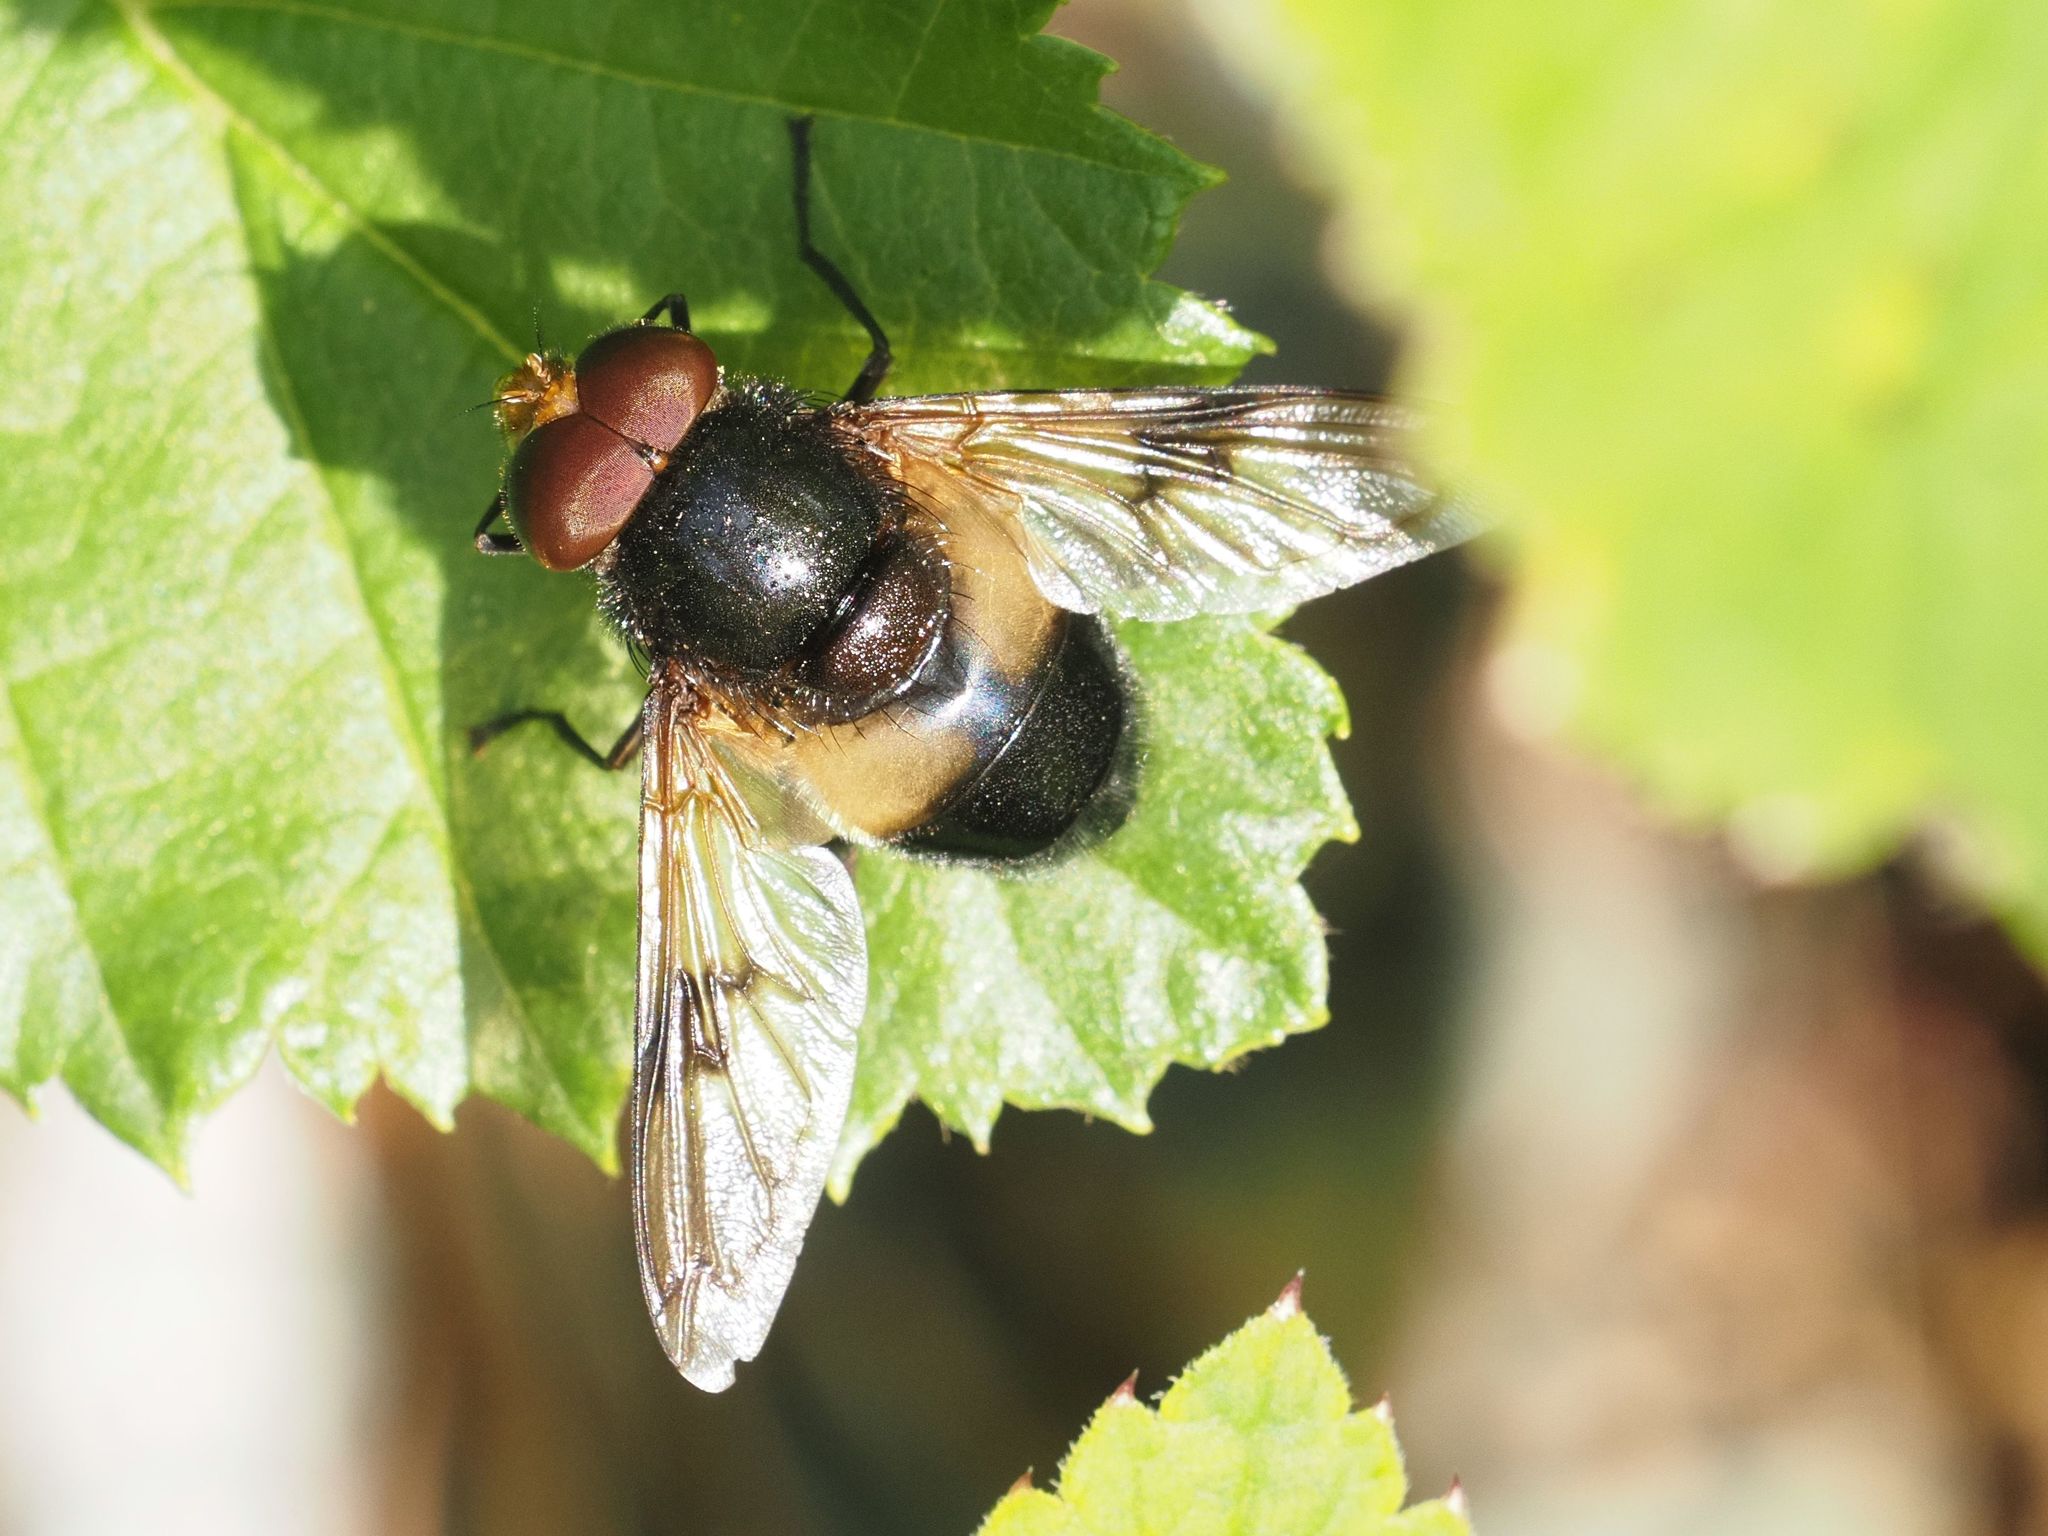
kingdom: Animalia
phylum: Arthropoda
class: Insecta
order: Diptera
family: Syrphidae
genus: Volucella
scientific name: Volucella pellucens
